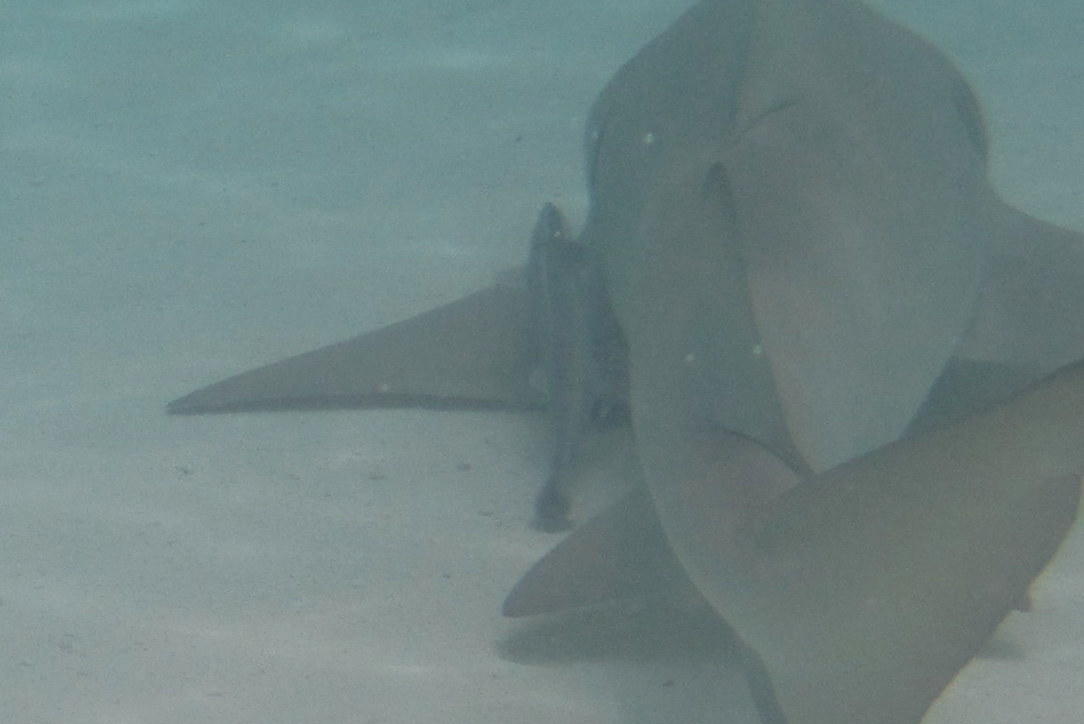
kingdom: Animalia
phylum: Chordata
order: Perciformes
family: Echeneidae
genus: Echeneis
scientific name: Echeneis naucrates
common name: Sharksucker
